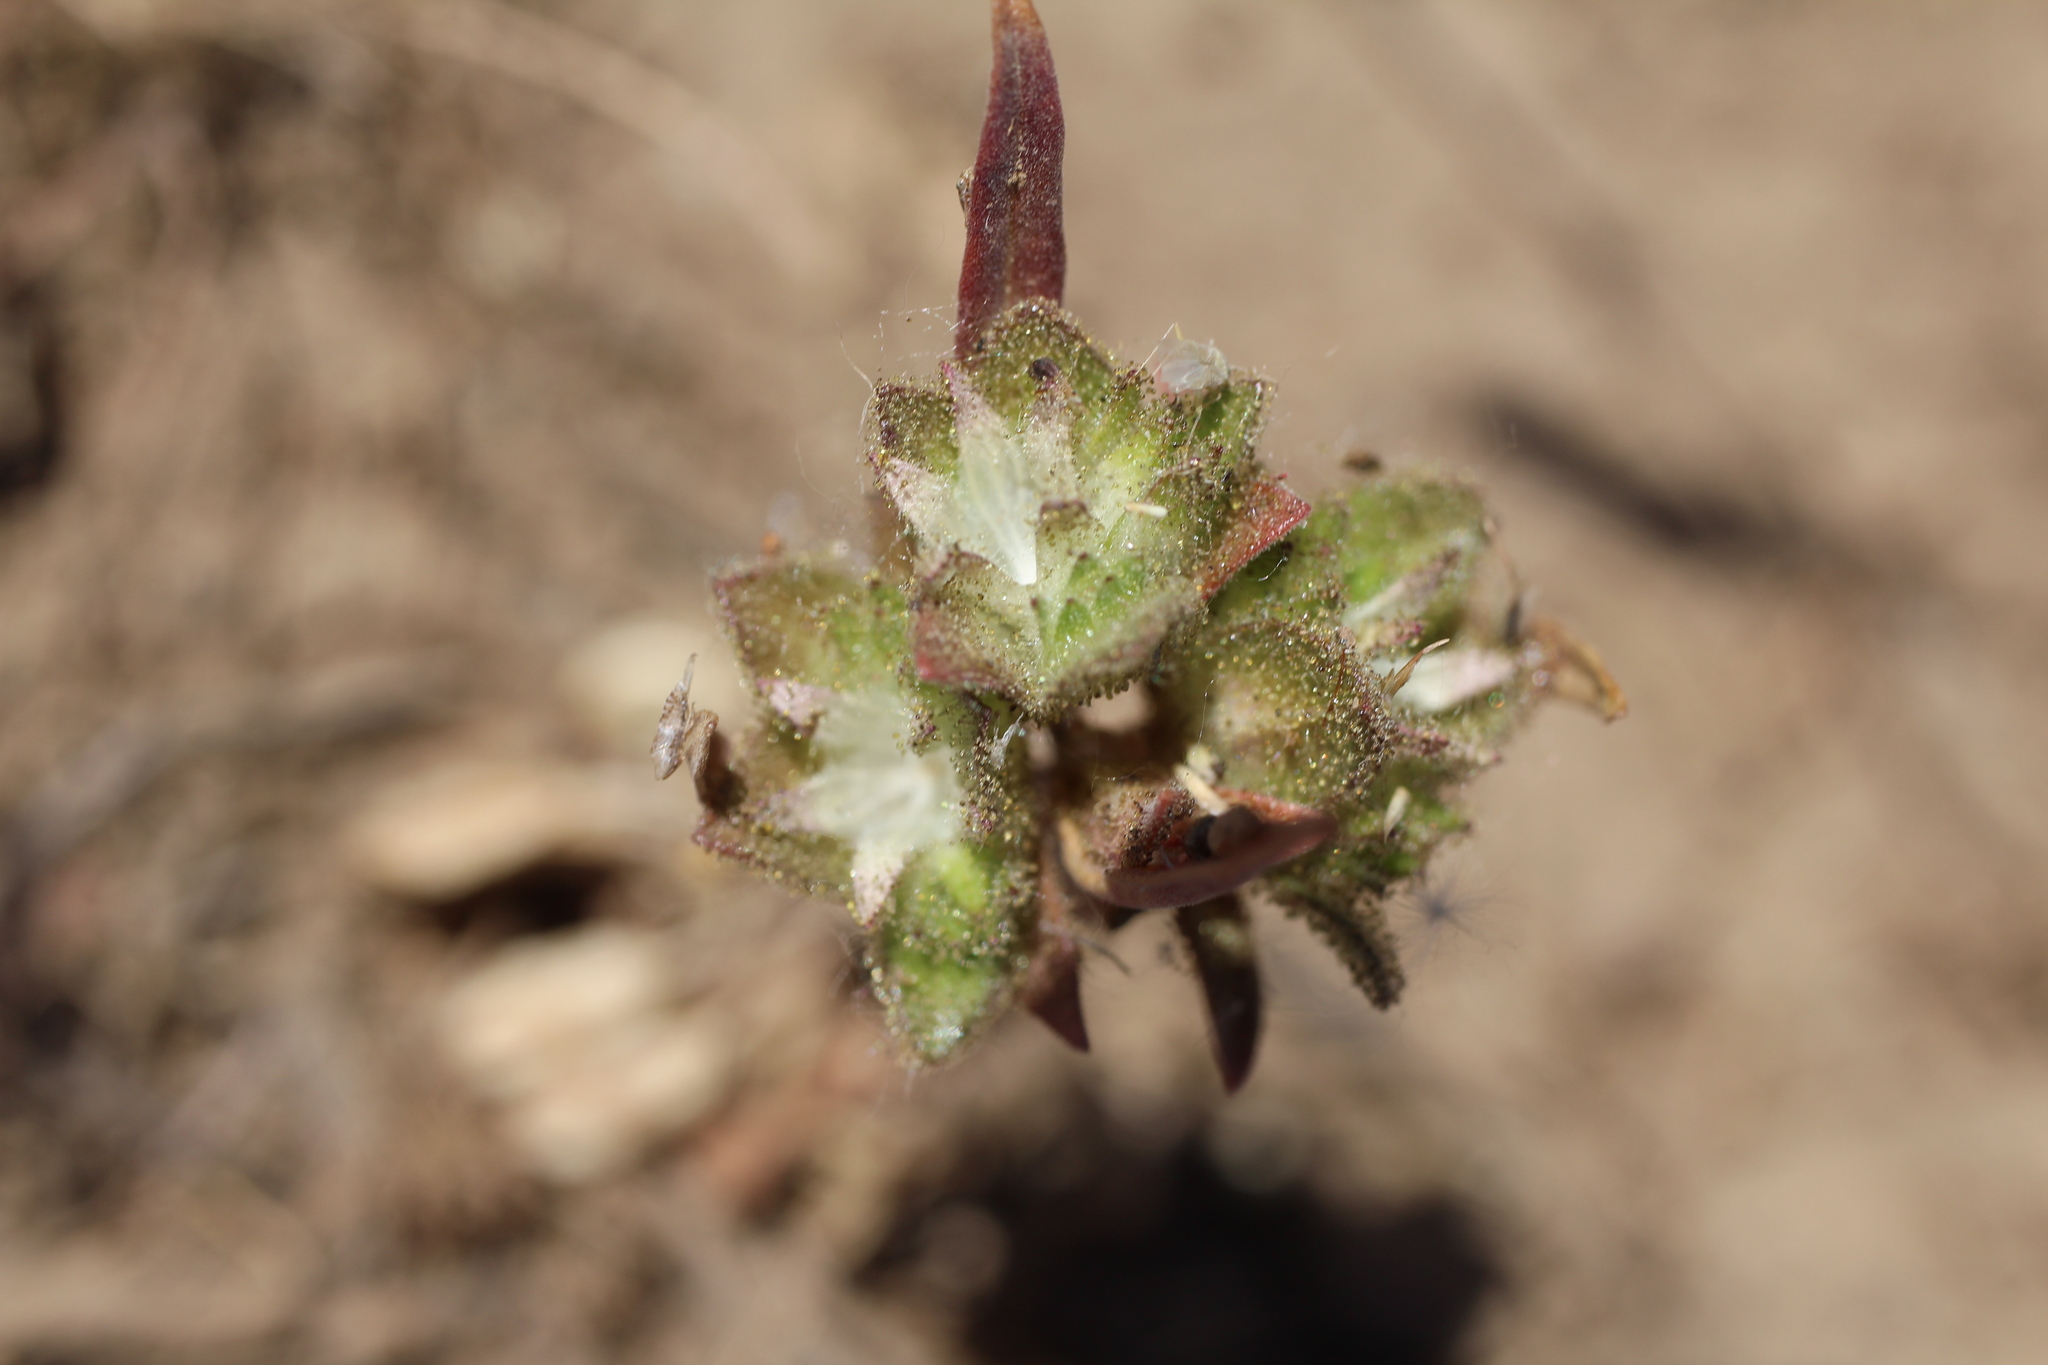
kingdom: Plantae
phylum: Tracheophyta
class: Magnoliopsida
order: Ericales
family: Polemoniaceae
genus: Collomia
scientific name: Collomia grandiflora
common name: California strawflower
